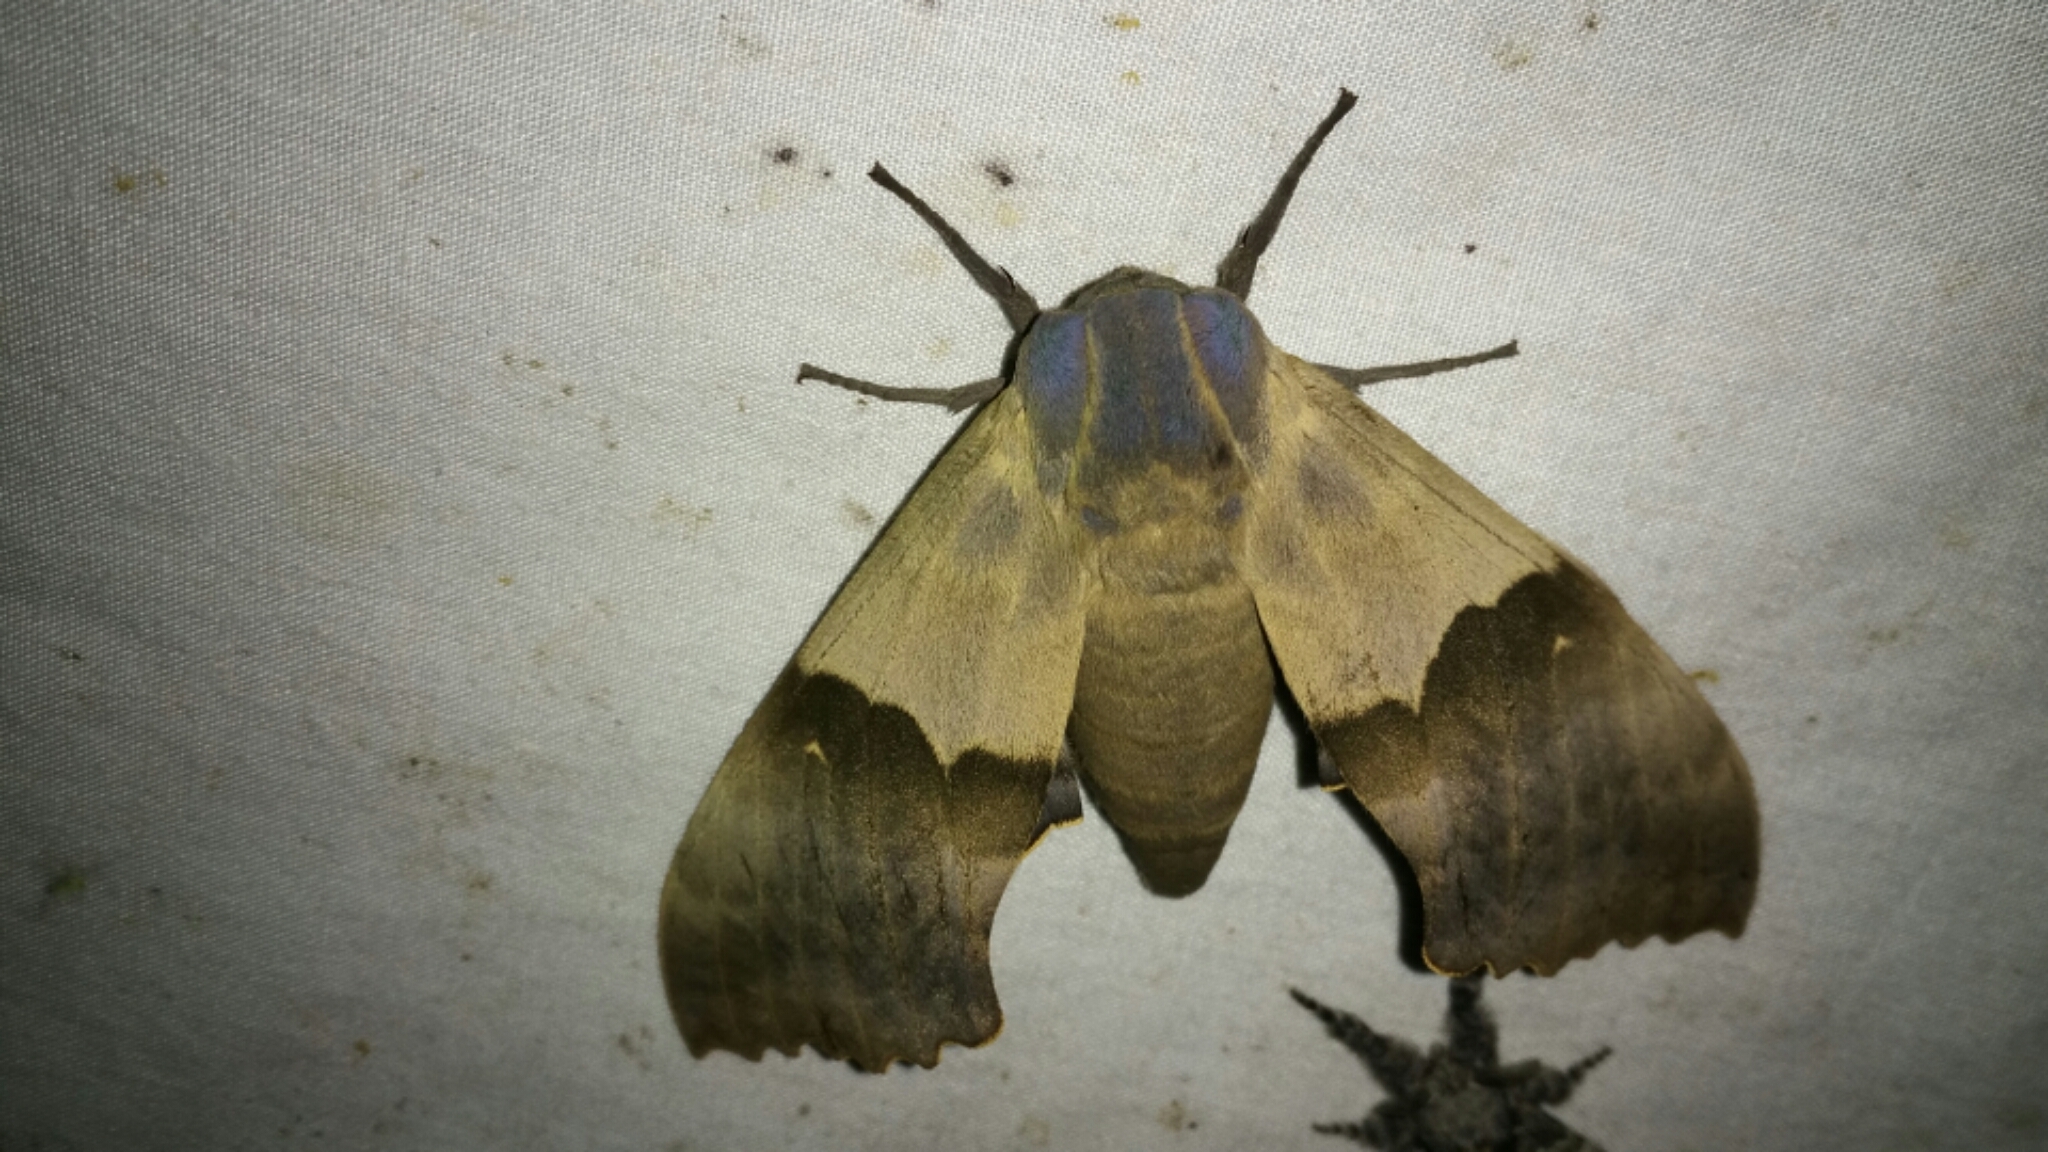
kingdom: Animalia
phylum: Arthropoda
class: Insecta
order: Lepidoptera
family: Sphingidae
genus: Pachysphinx
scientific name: Pachysphinx modesta
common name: Big poplar sphinx
